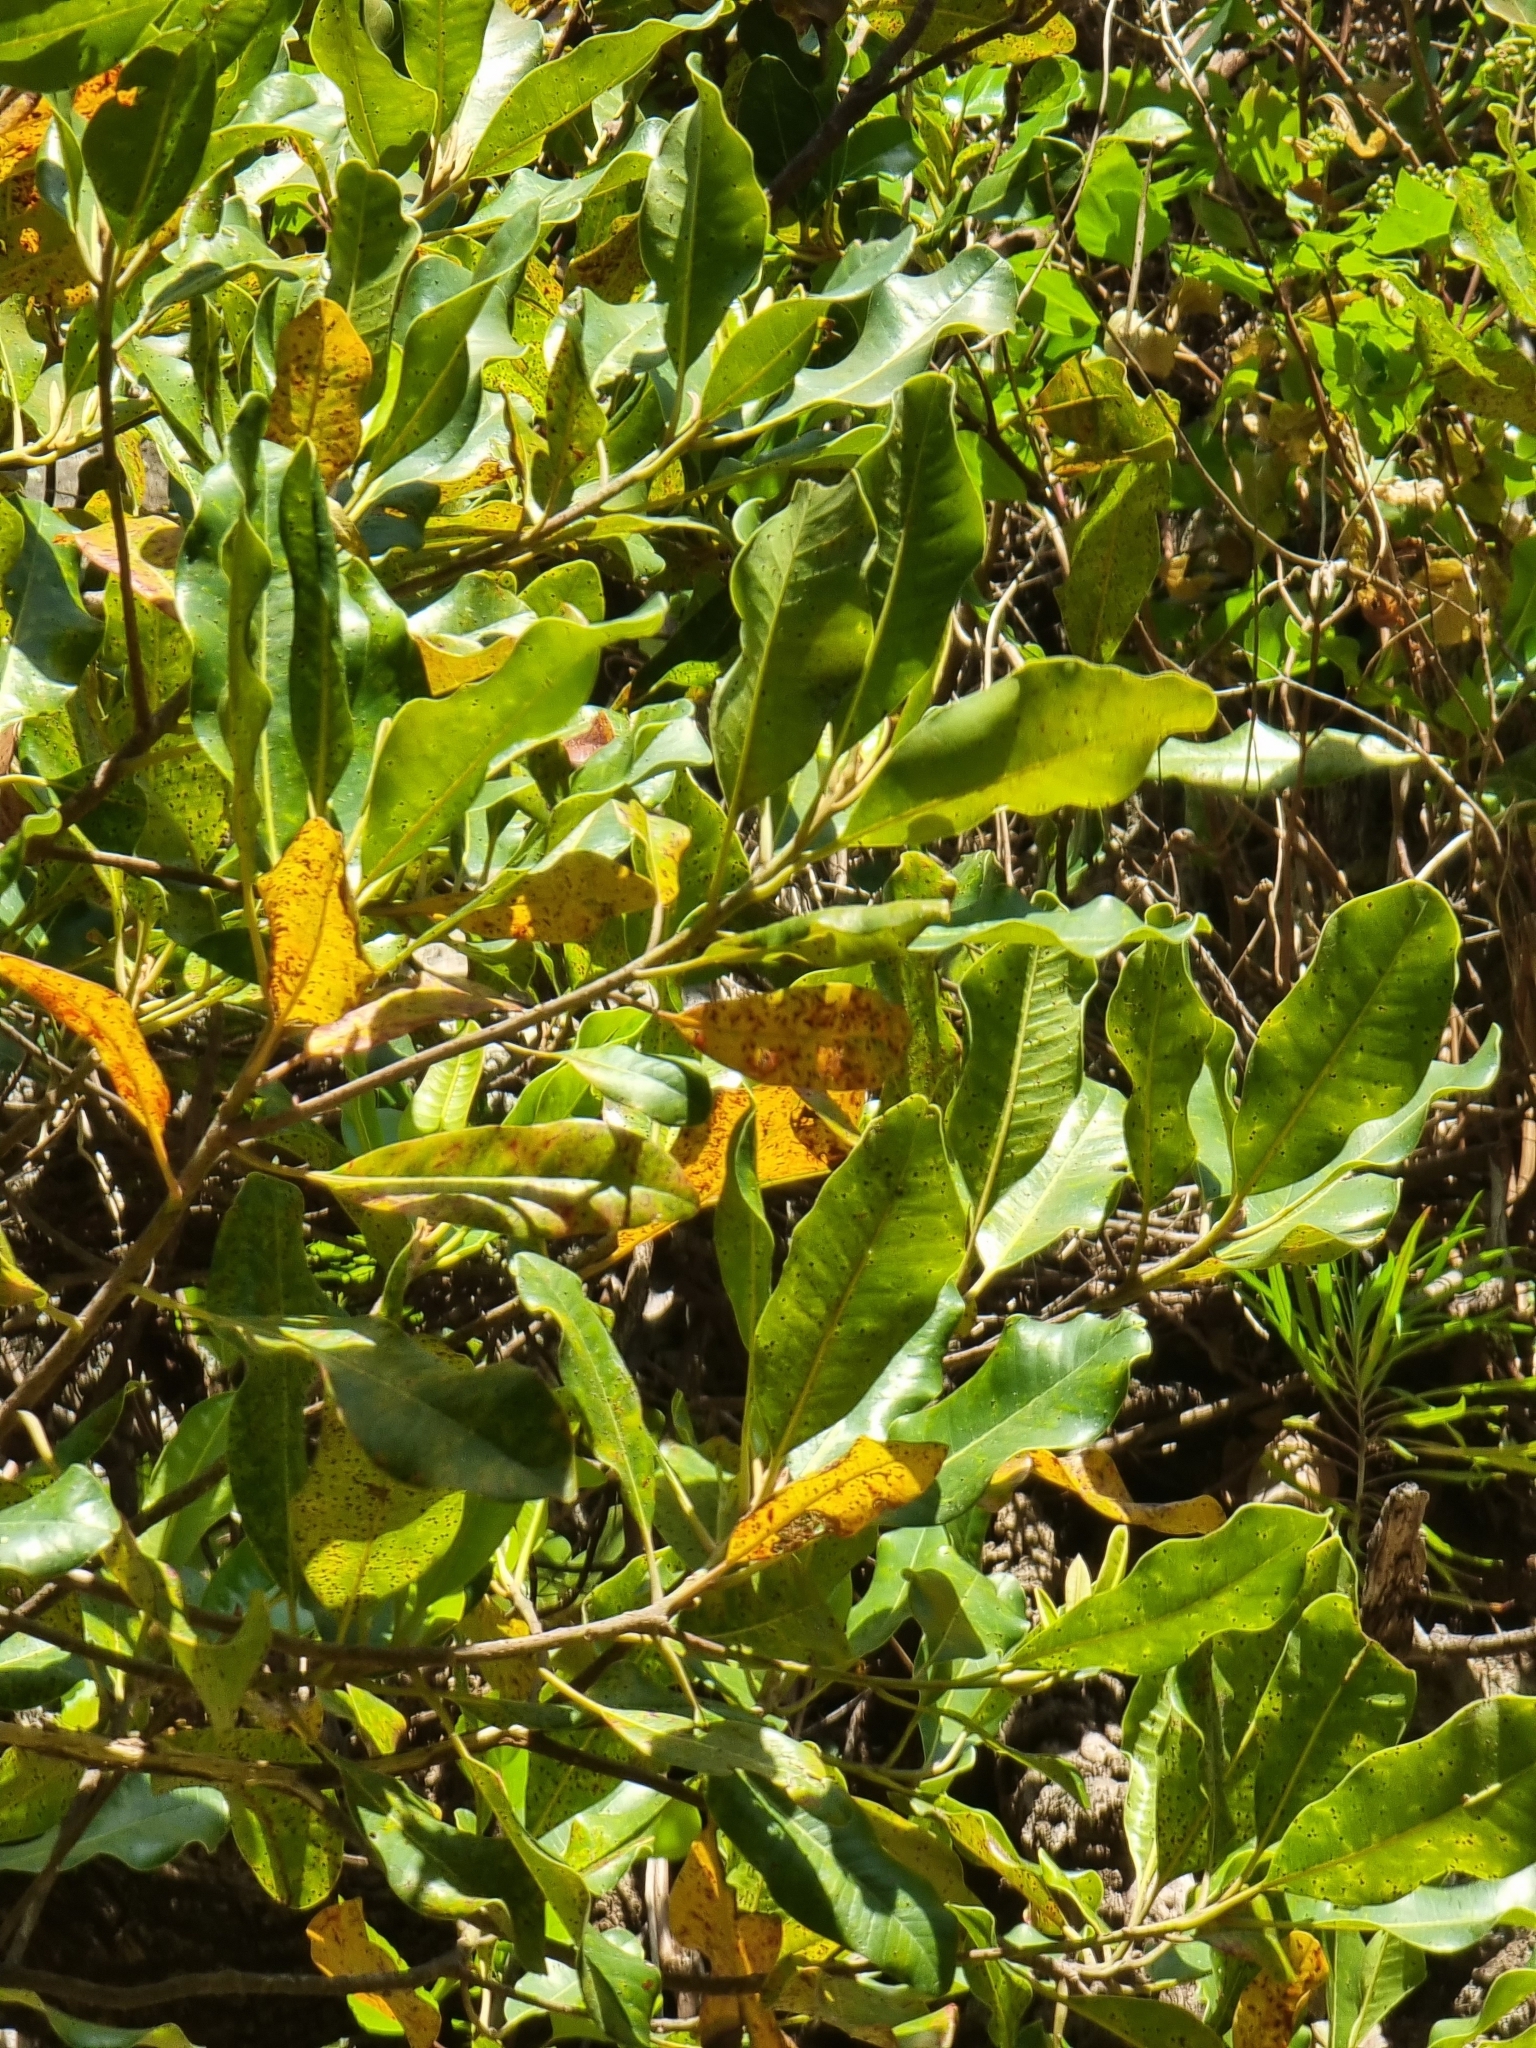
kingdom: Plantae
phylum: Tracheophyta
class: Magnoliopsida
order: Ericales
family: Sapotaceae
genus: Sideroxylon
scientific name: Sideroxylon mirmulans
